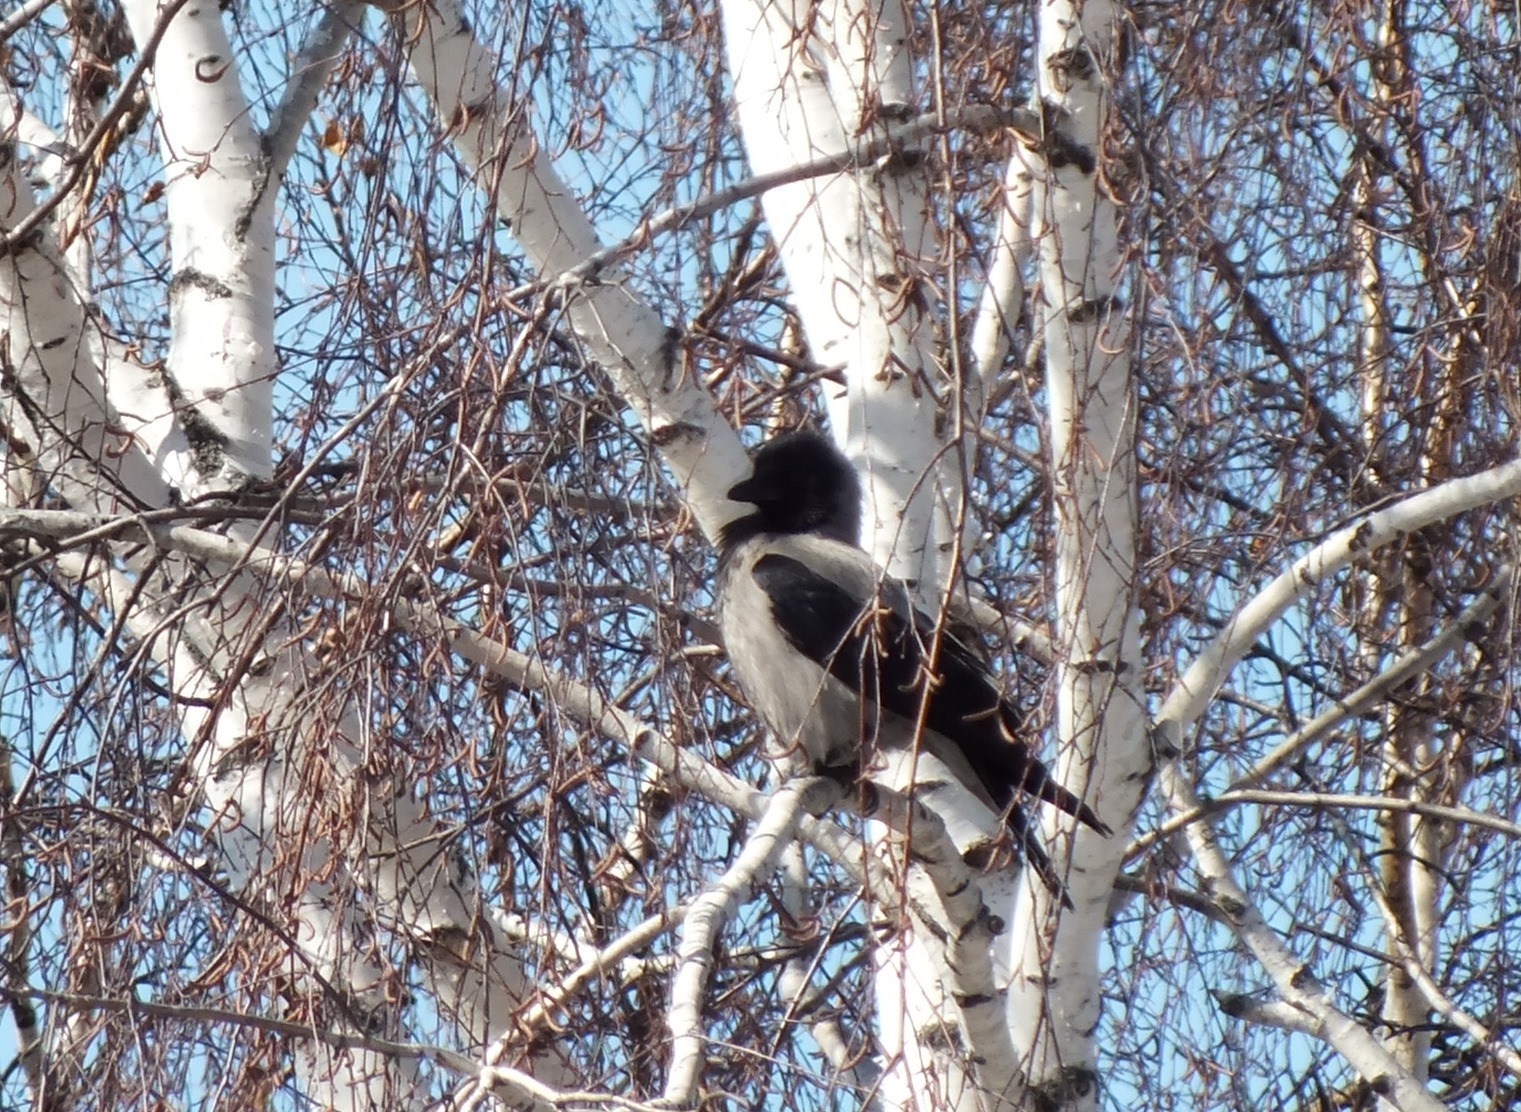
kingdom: Animalia
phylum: Chordata
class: Aves
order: Passeriformes
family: Corvidae
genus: Corvus
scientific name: Corvus cornix
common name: Hooded crow
